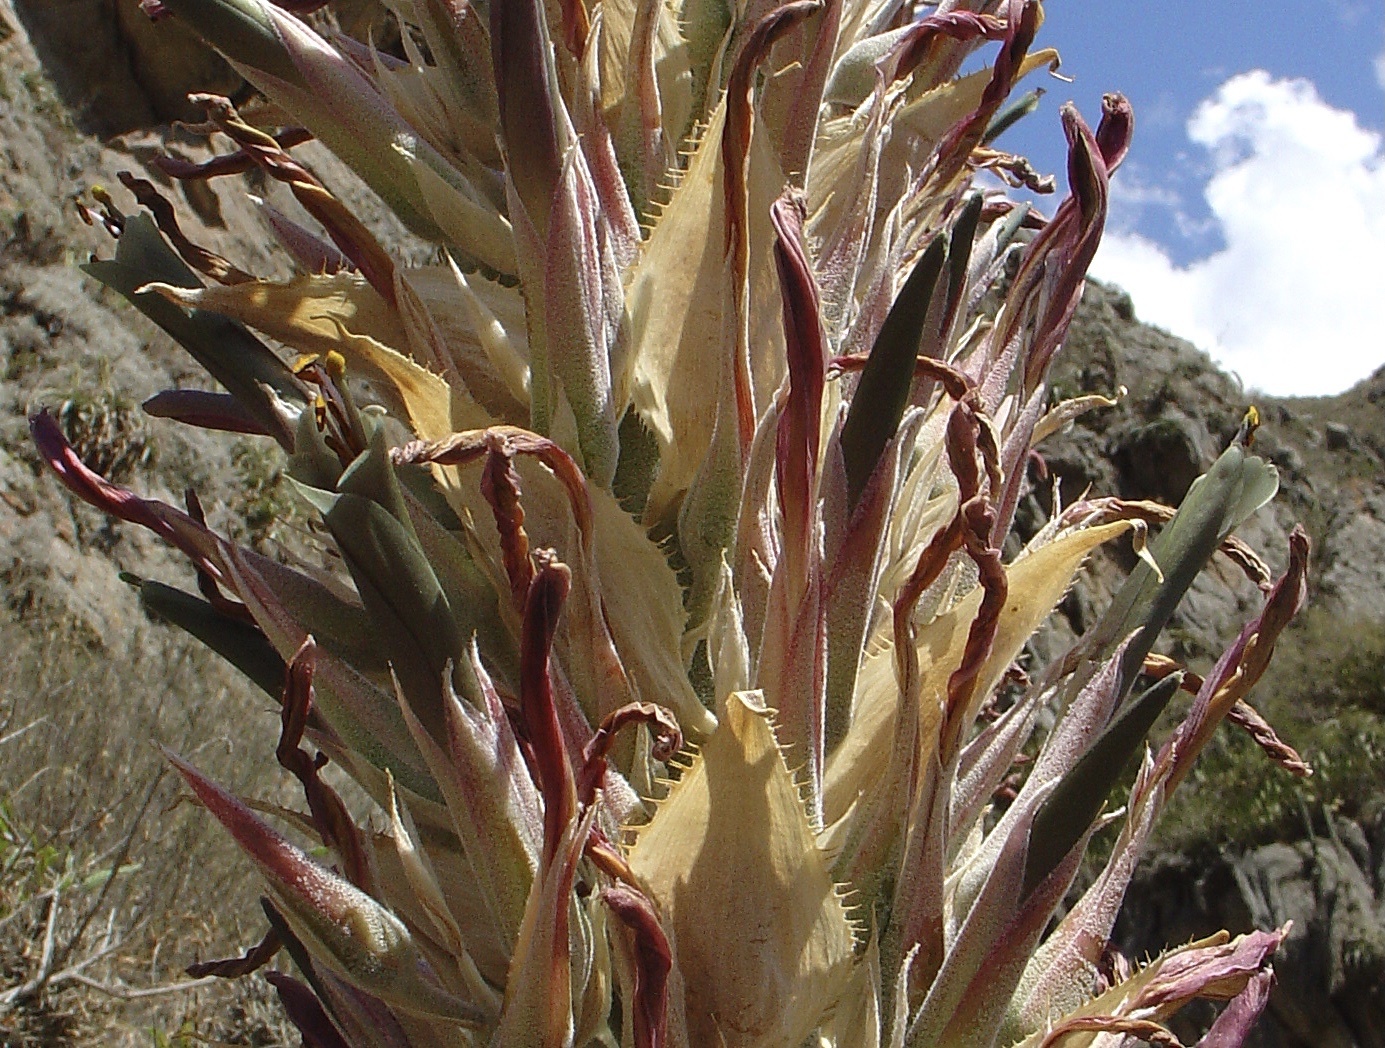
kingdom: Plantae
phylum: Tracheophyta
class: Liliopsida
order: Poales
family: Bromeliaceae
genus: Puya
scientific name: Puya densiflora
